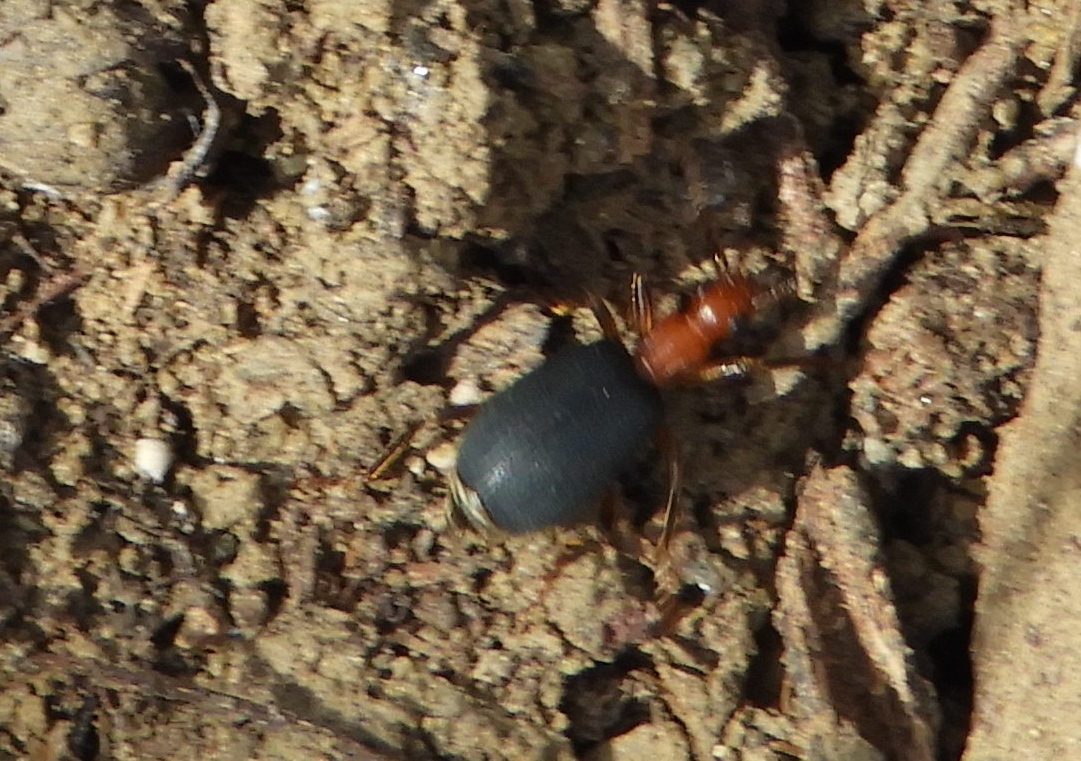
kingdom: Animalia
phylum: Arthropoda
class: Insecta
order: Coleoptera
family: Carabidae
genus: Brachinus
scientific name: Brachinus
